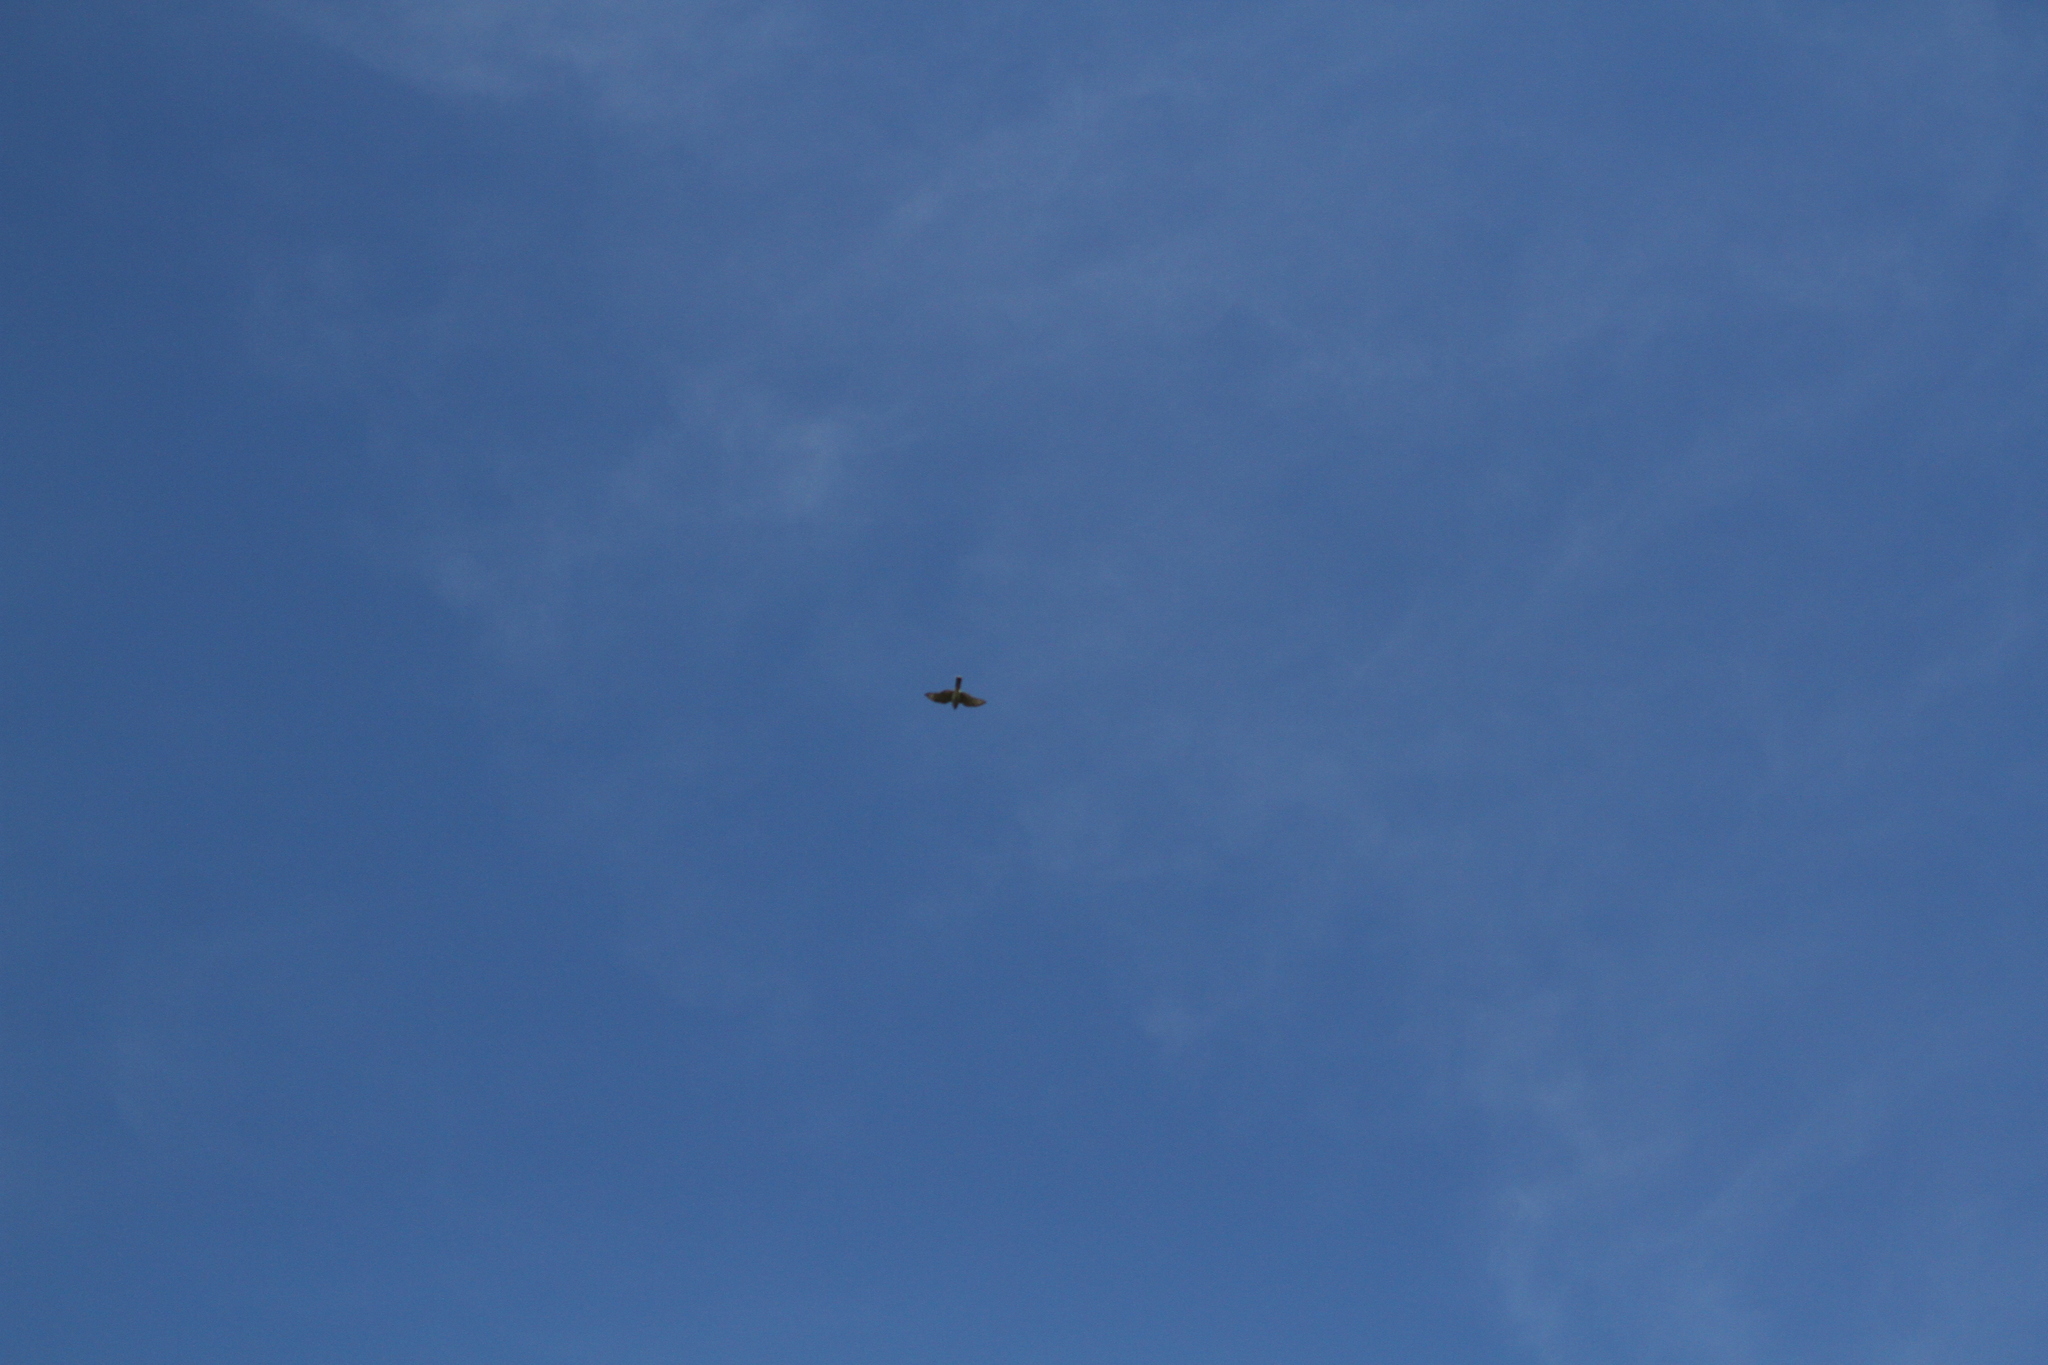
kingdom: Animalia
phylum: Chordata
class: Aves
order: Accipitriformes
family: Accipitridae
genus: Accipiter
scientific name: Accipiter striatus
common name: Sharp-shinned hawk
